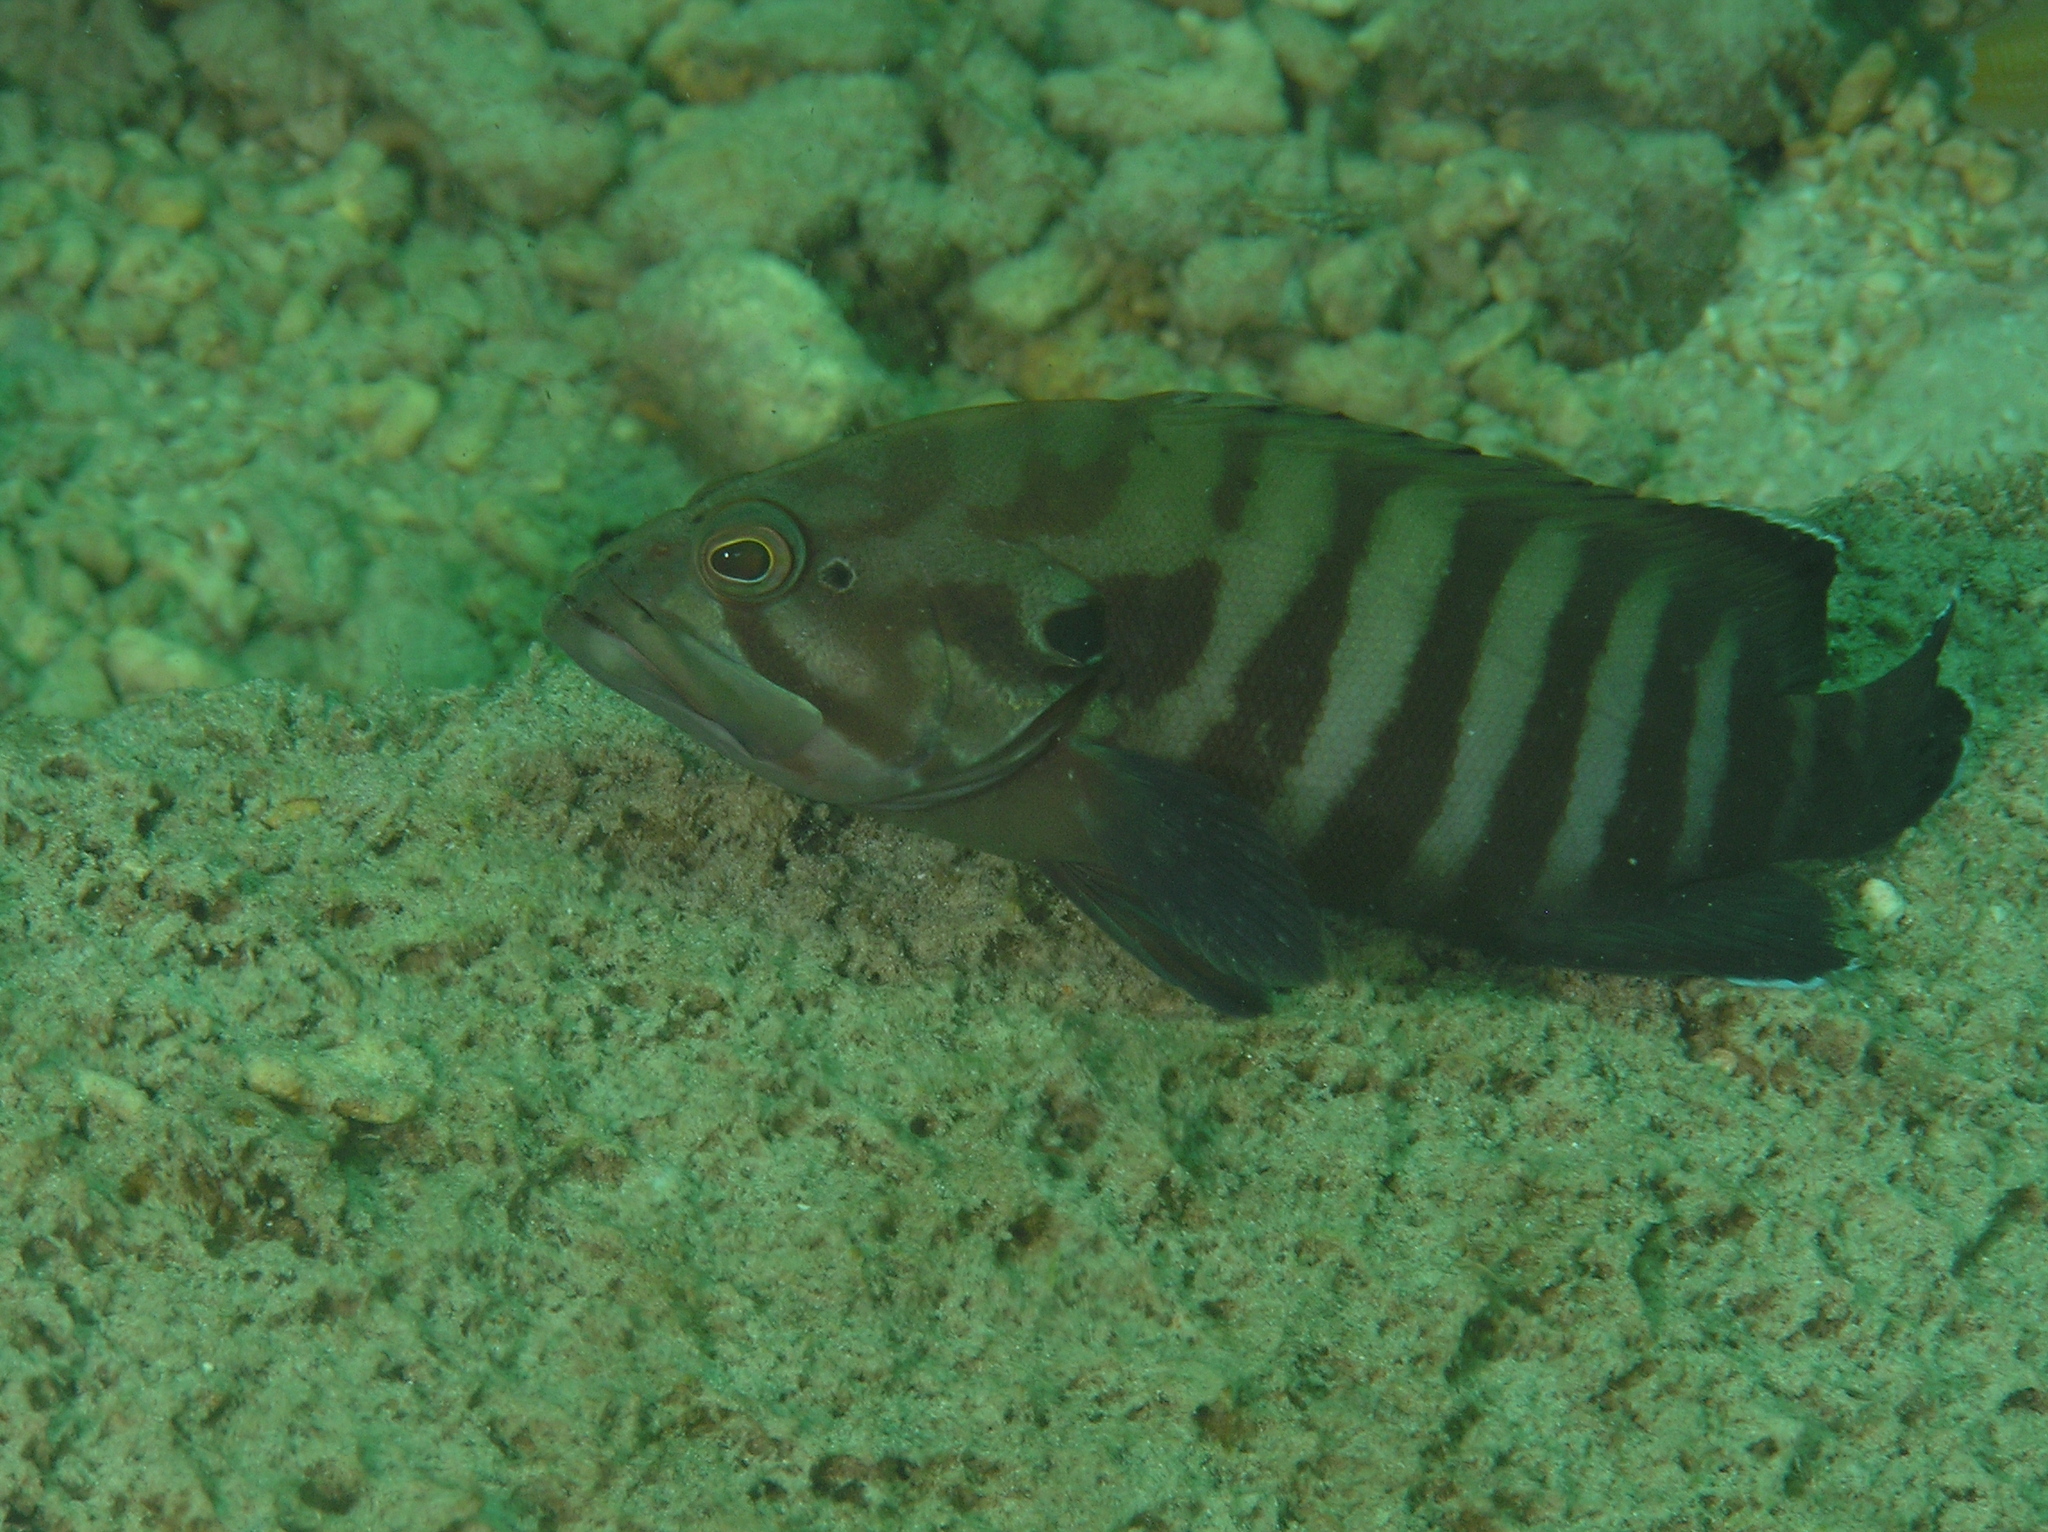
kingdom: Animalia
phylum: Chordata
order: Perciformes
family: Serranidae
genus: Cephalopholis
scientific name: Cephalopholis boenak
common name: Chocolate hind
